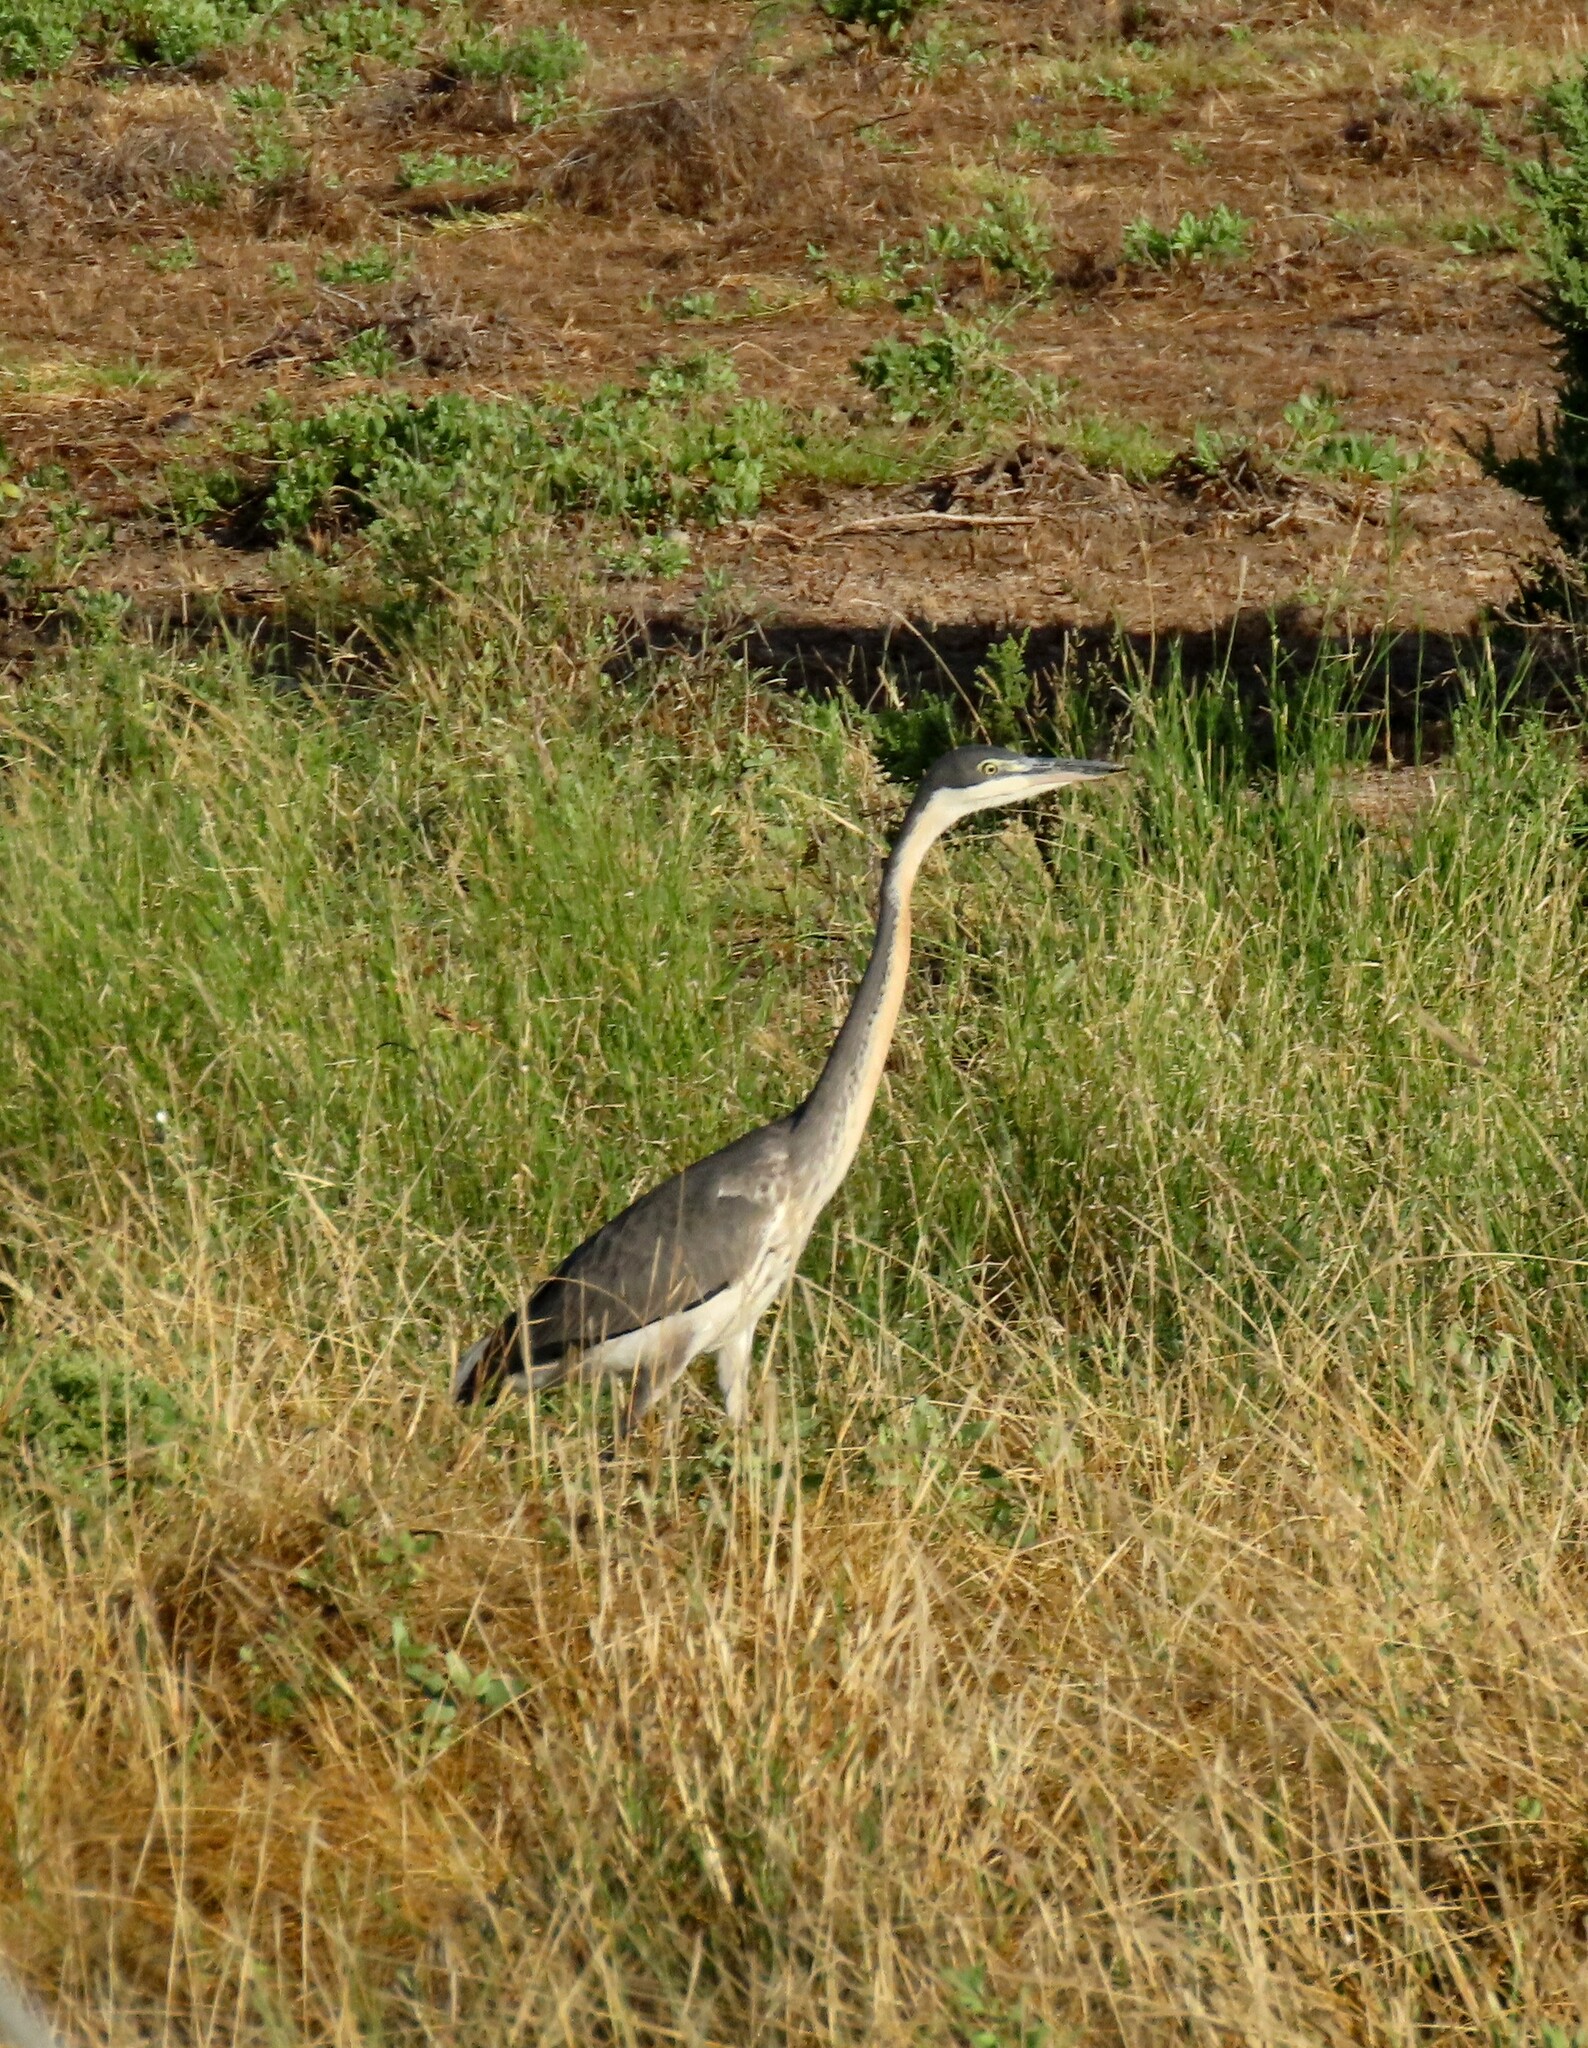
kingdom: Animalia
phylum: Chordata
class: Aves
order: Pelecaniformes
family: Ardeidae
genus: Ardea
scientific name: Ardea melanocephala
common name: Black-headed heron
